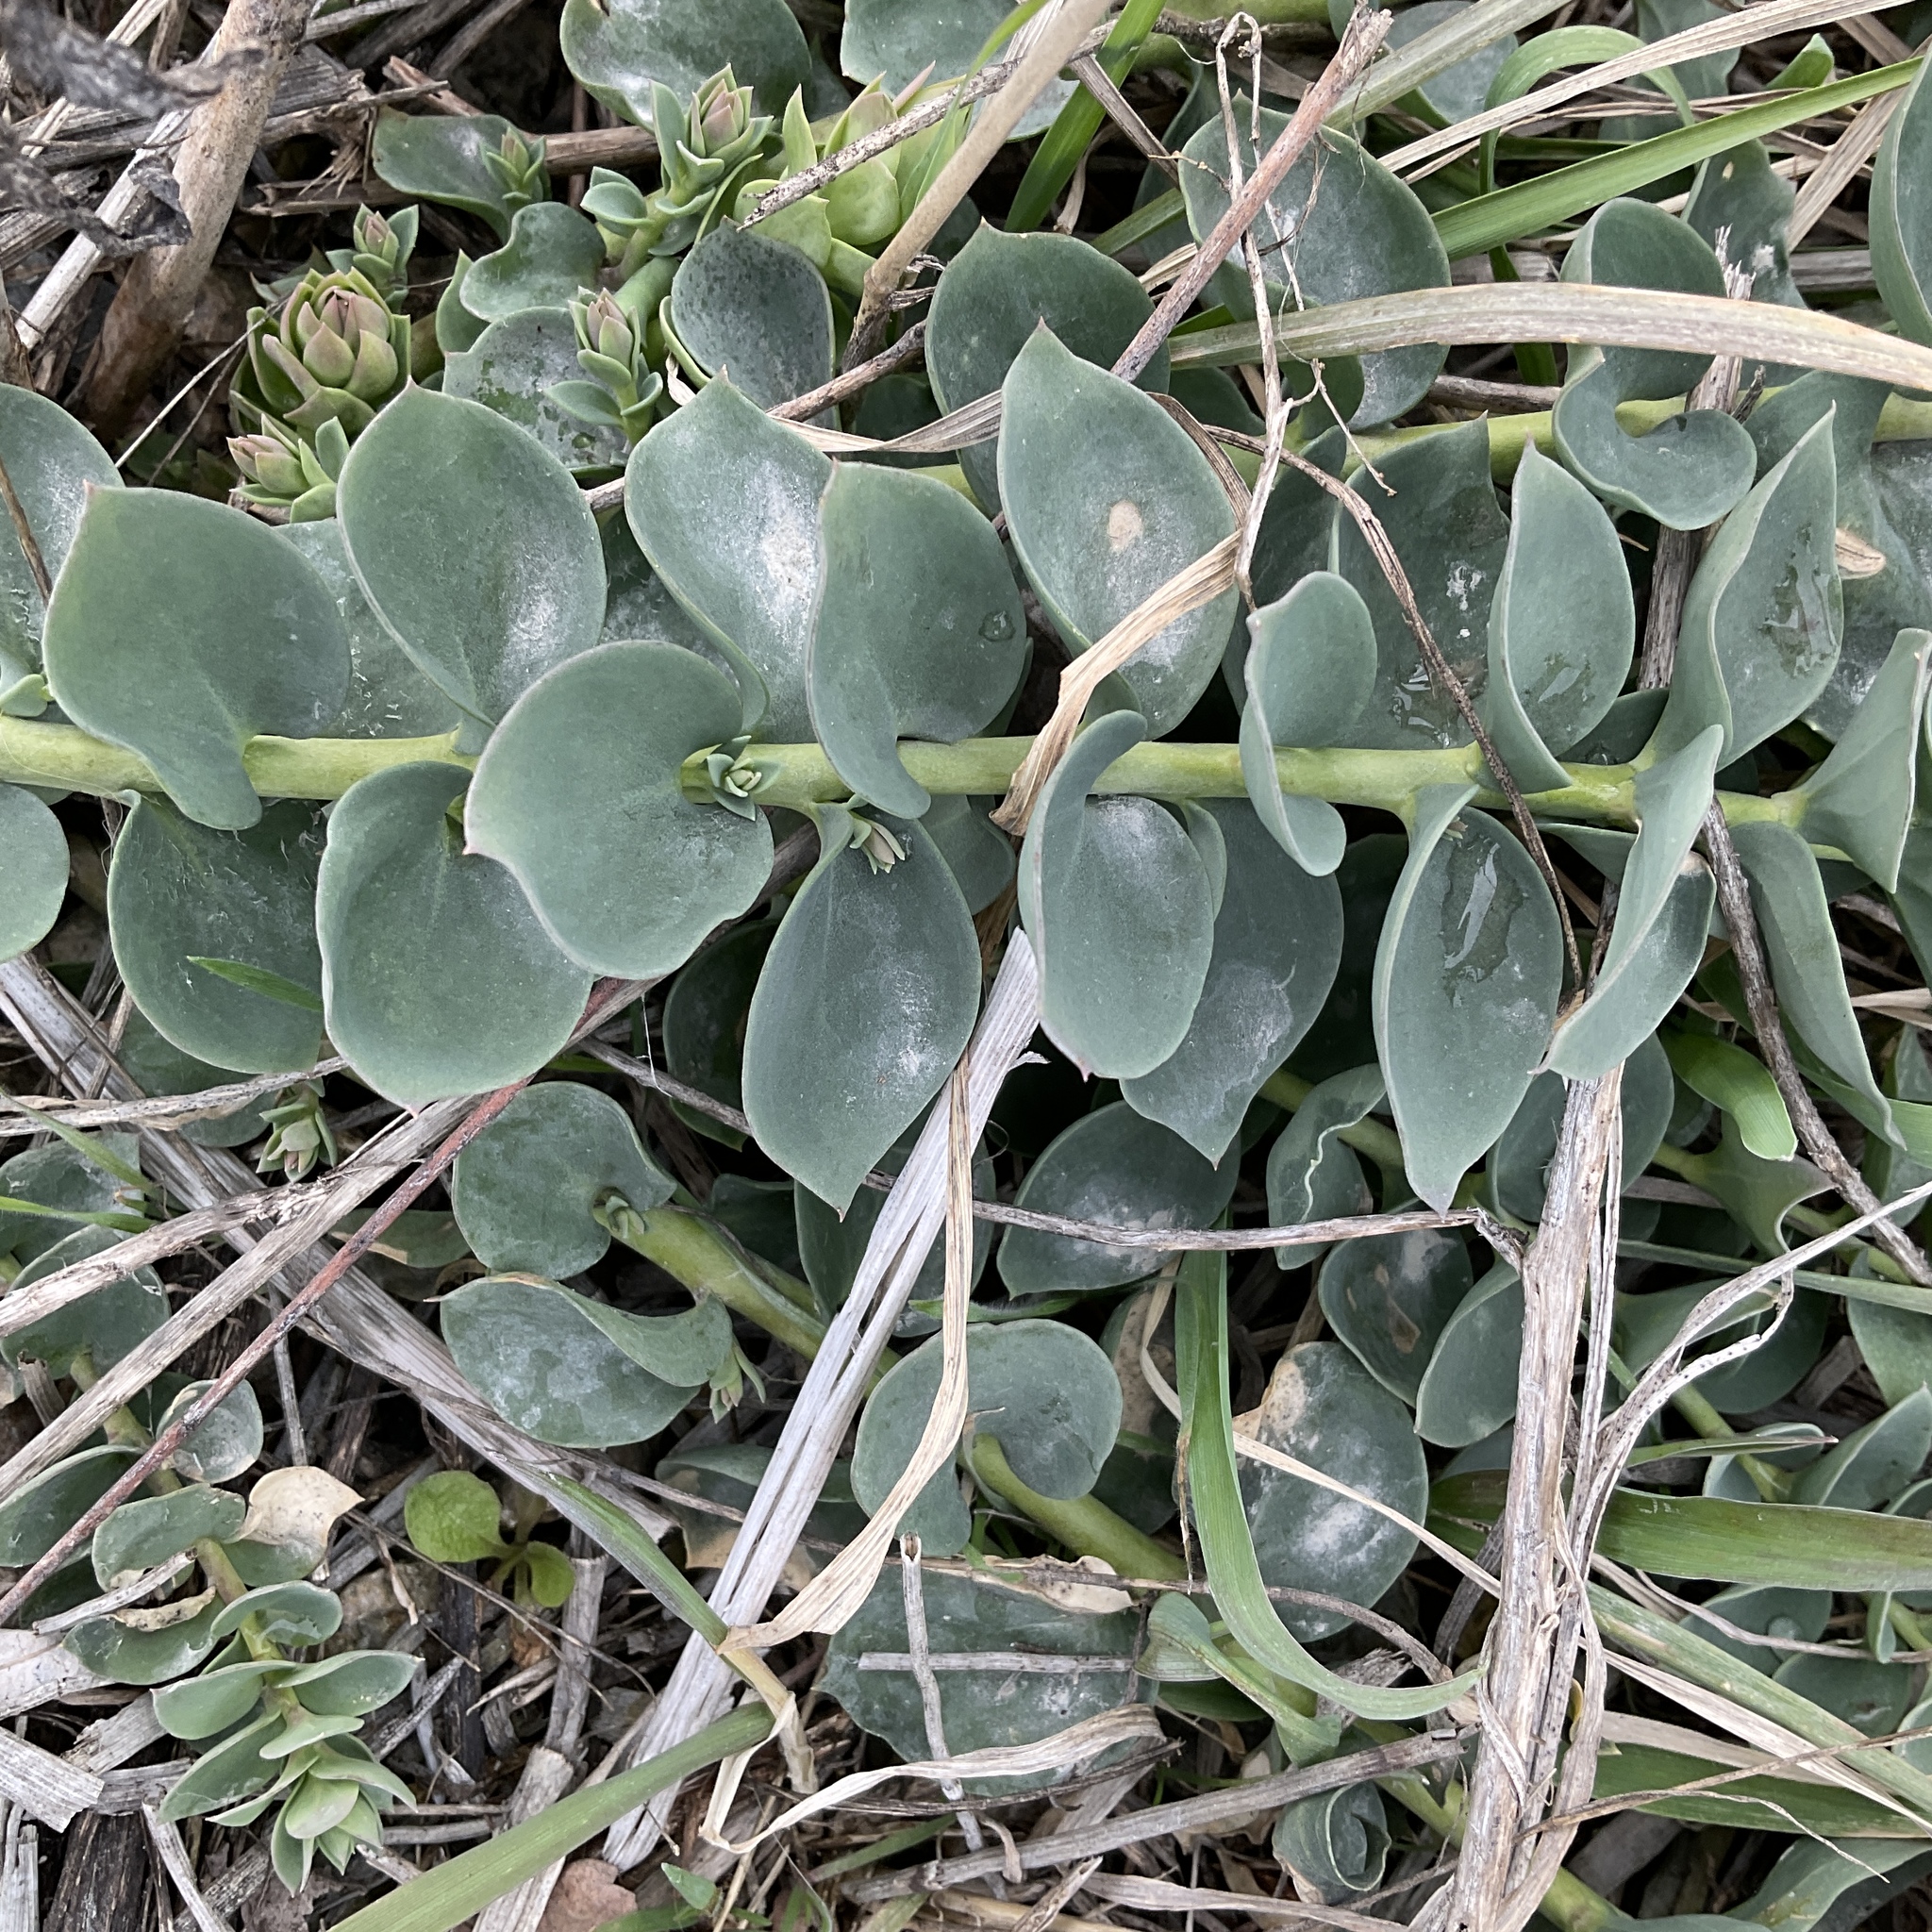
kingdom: Plantae
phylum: Tracheophyta
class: Magnoliopsida
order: Lamiales
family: Plantaginaceae
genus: Linaria
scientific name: Linaria dalmatica
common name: Dalmatian toadflax
